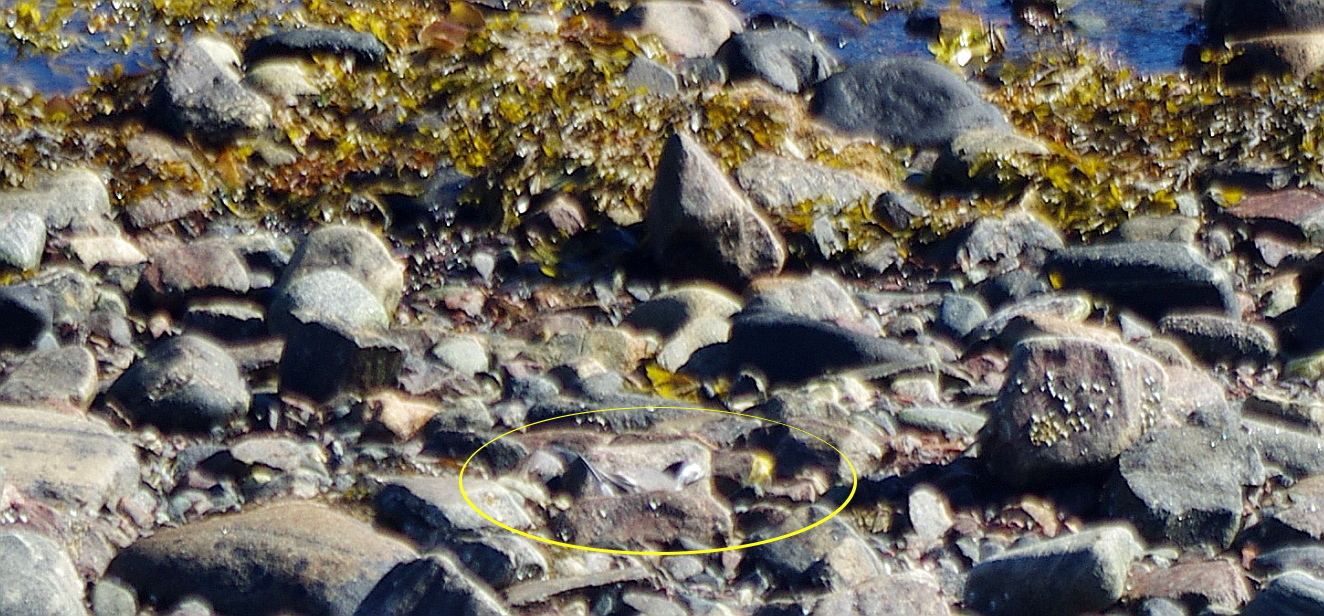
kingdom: Animalia
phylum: Chordata
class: Aves
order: Passeriformes
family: Motacillidae
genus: Motacilla
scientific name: Motacilla alba
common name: White wagtail
